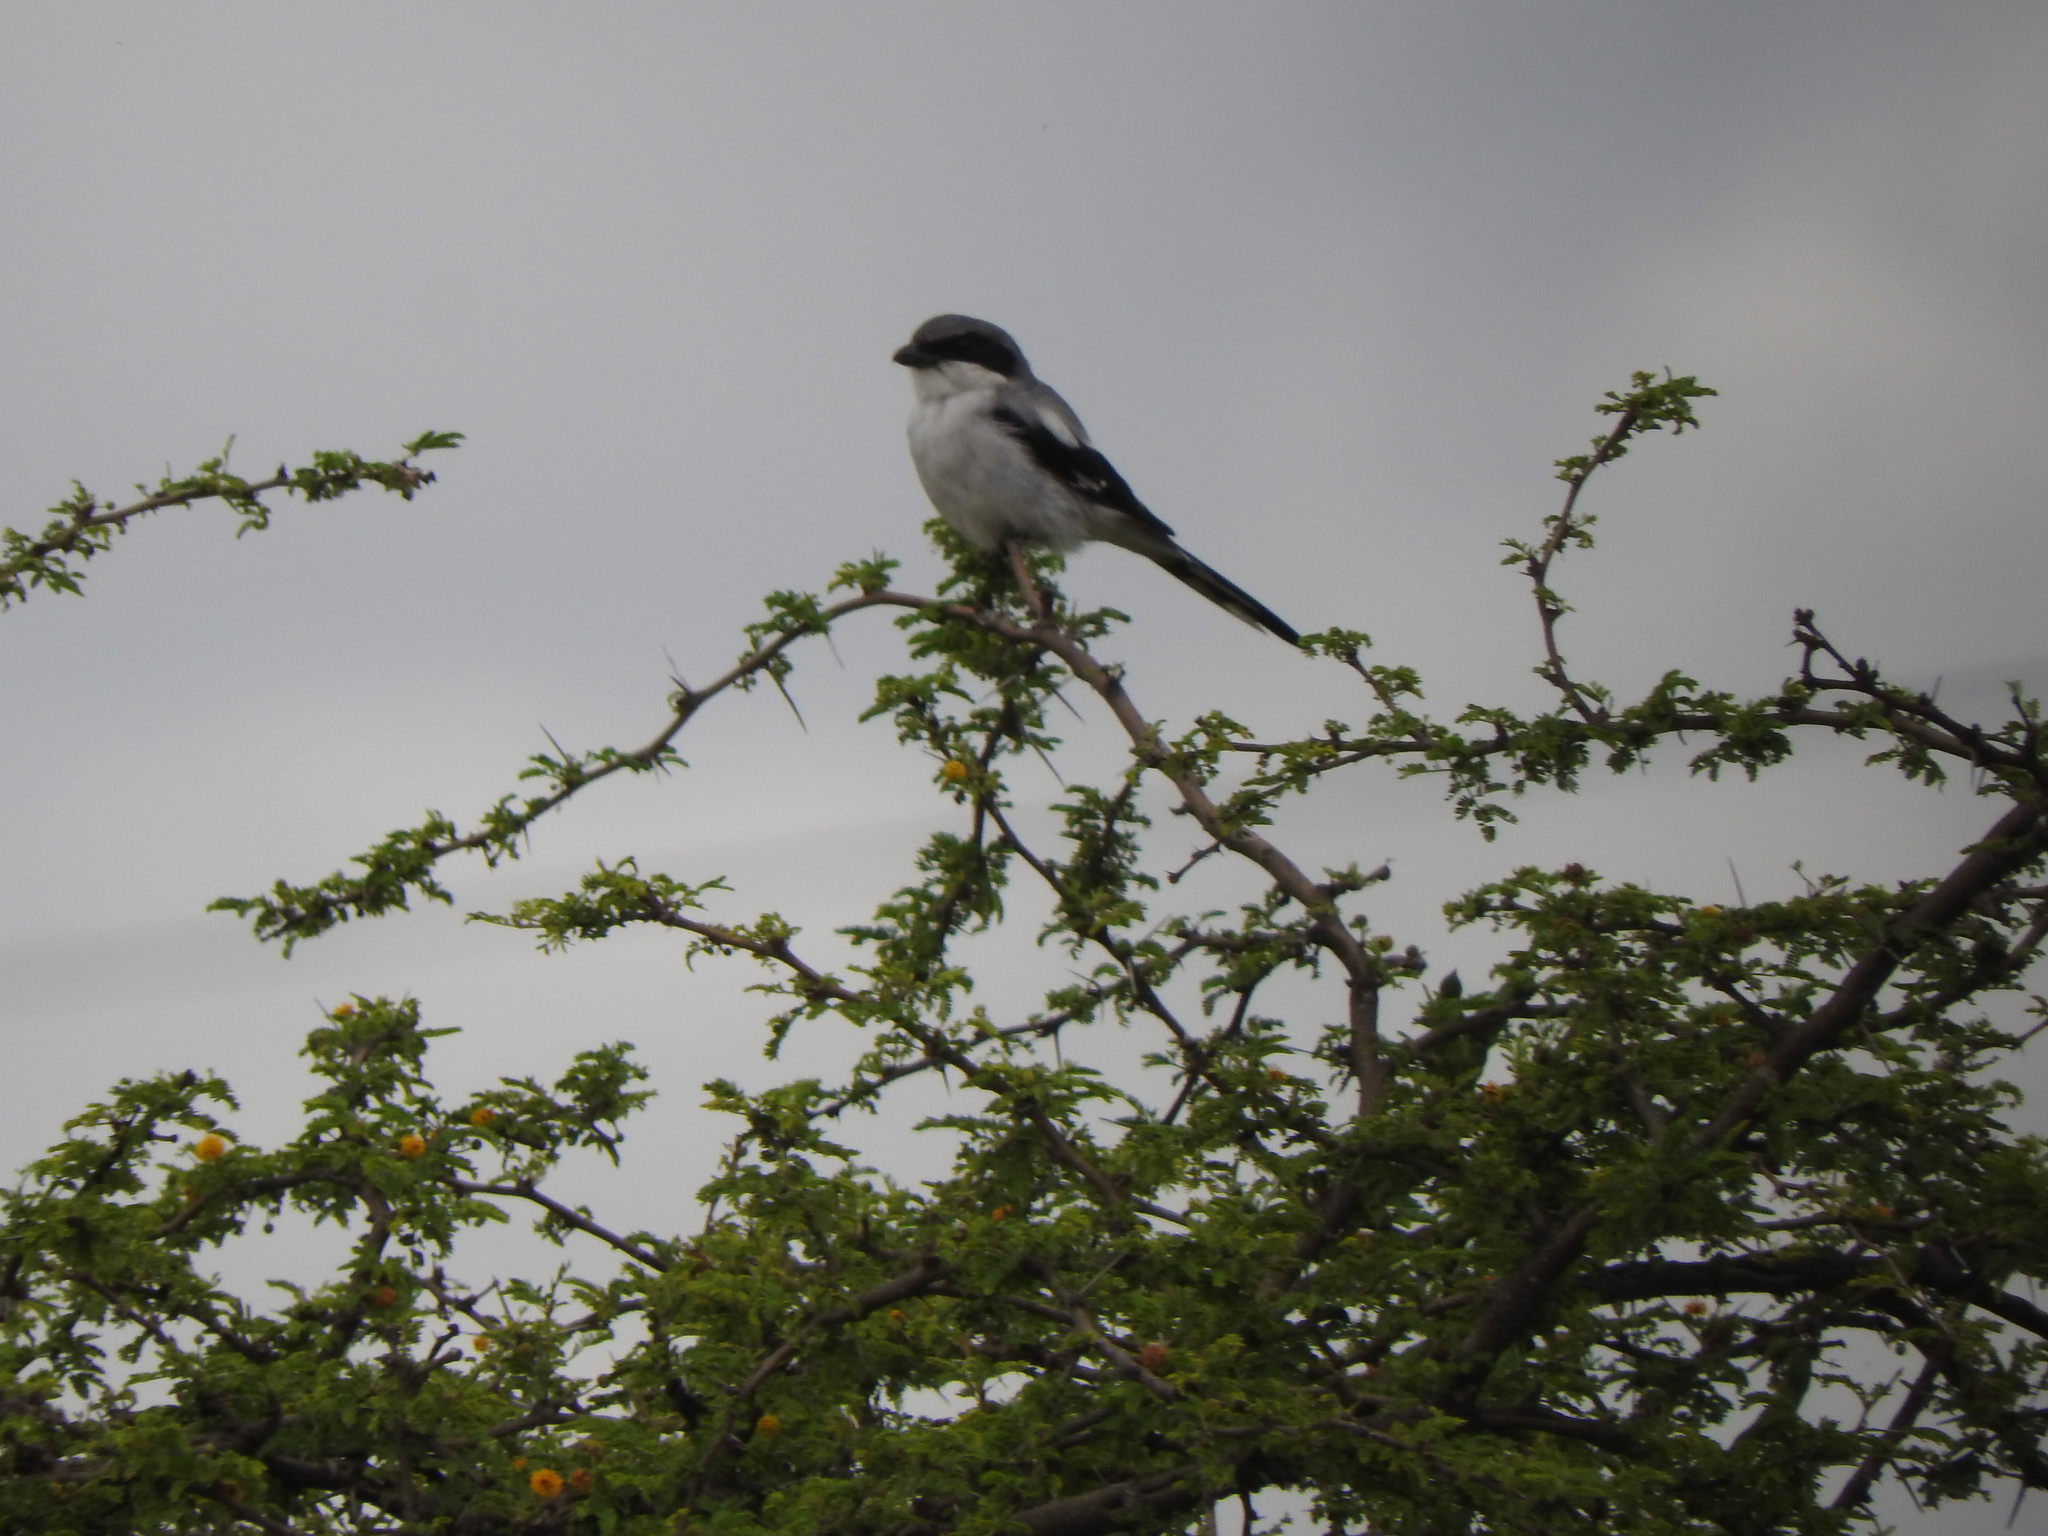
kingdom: Animalia
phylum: Chordata
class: Aves
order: Passeriformes
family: Laniidae
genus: Lanius
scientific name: Lanius ludovicianus
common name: Loggerhead shrike
